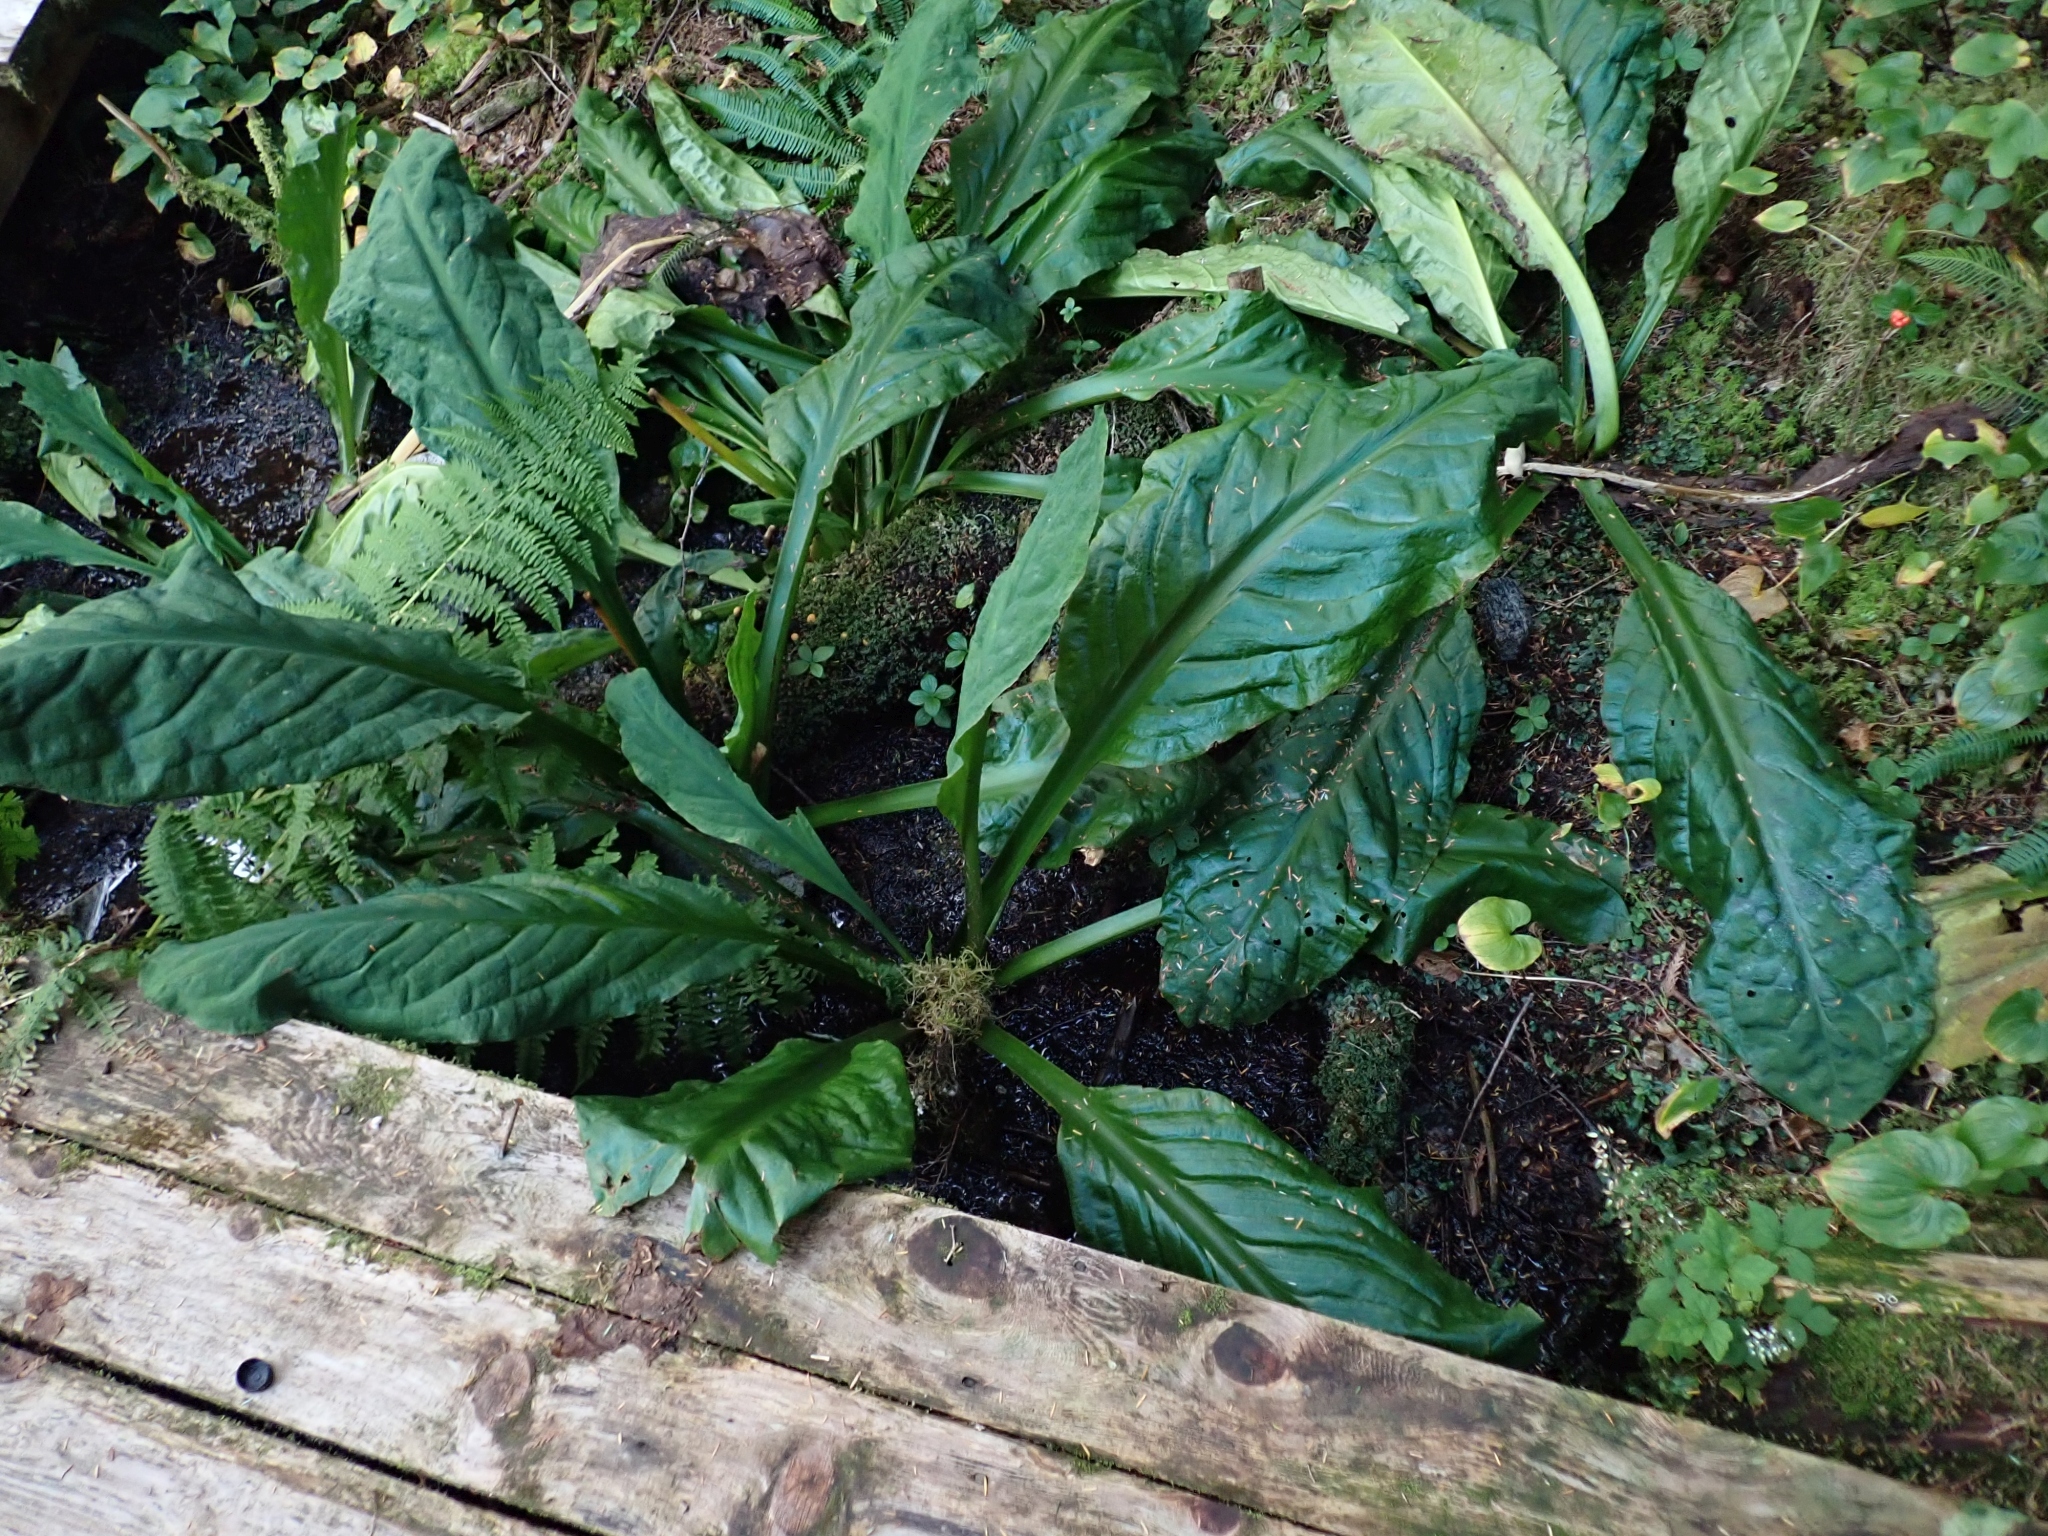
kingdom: Plantae
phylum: Tracheophyta
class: Liliopsida
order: Alismatales
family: Araceae
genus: Lysichiton
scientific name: Lysichiton americanus
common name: American skunk cabbage
